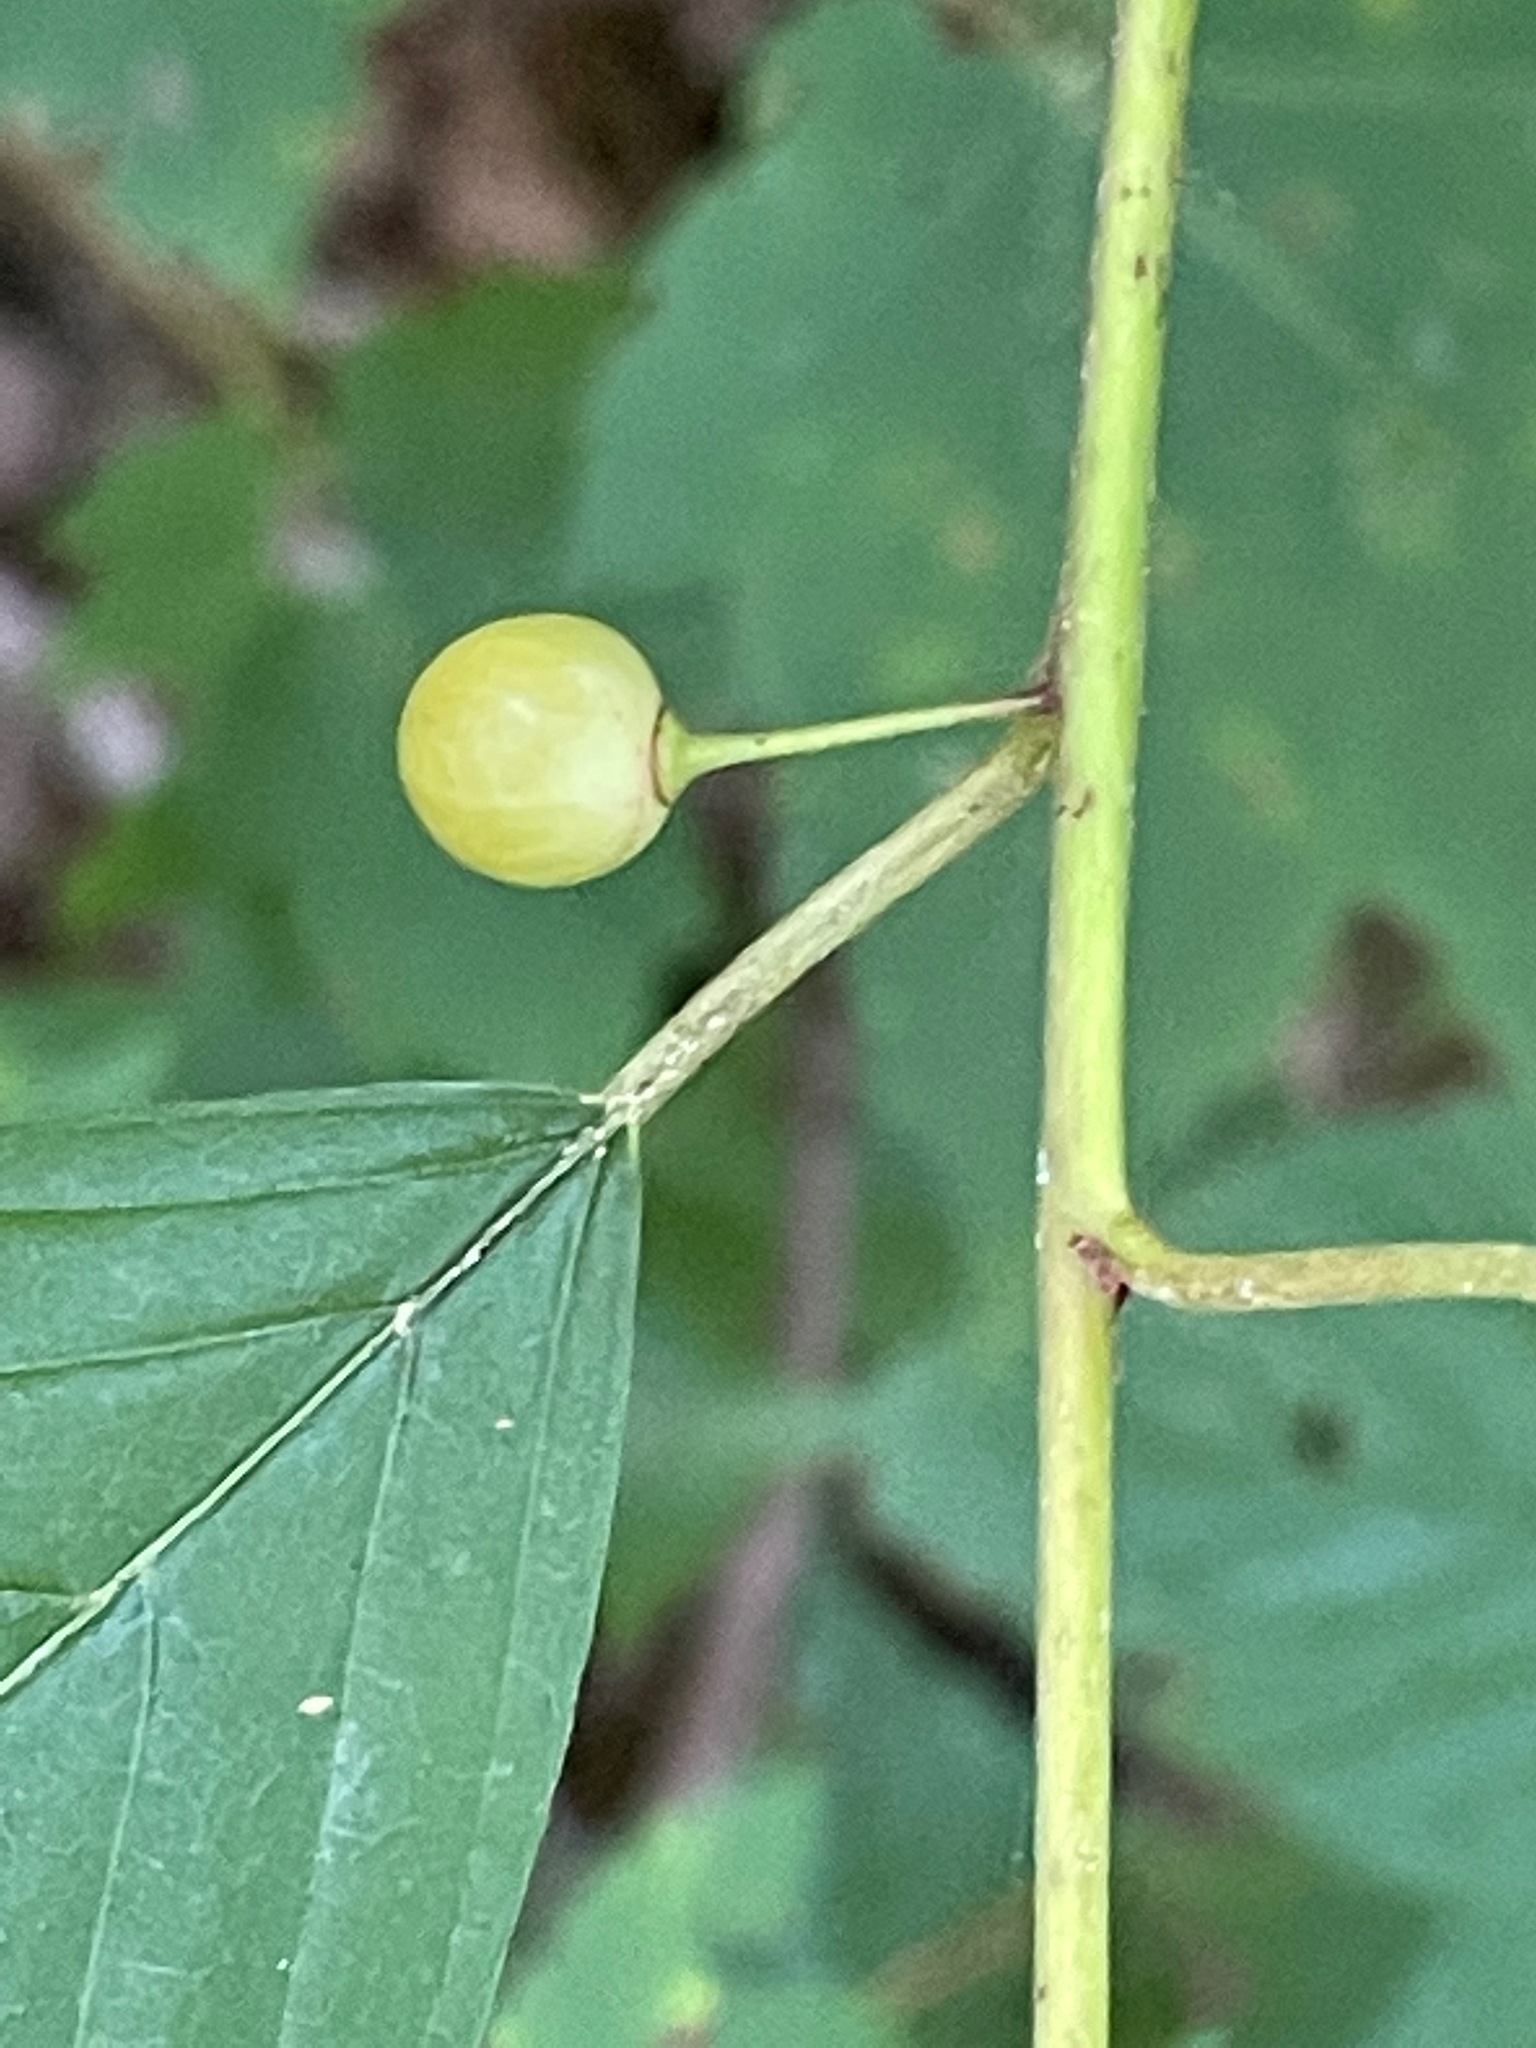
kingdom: Plantae
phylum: Tracheophyta
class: Magnoliopsida
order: Rosales
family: Rhamnaceae
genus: Frangula
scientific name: Frangula alnus
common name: Alder buckthorn
